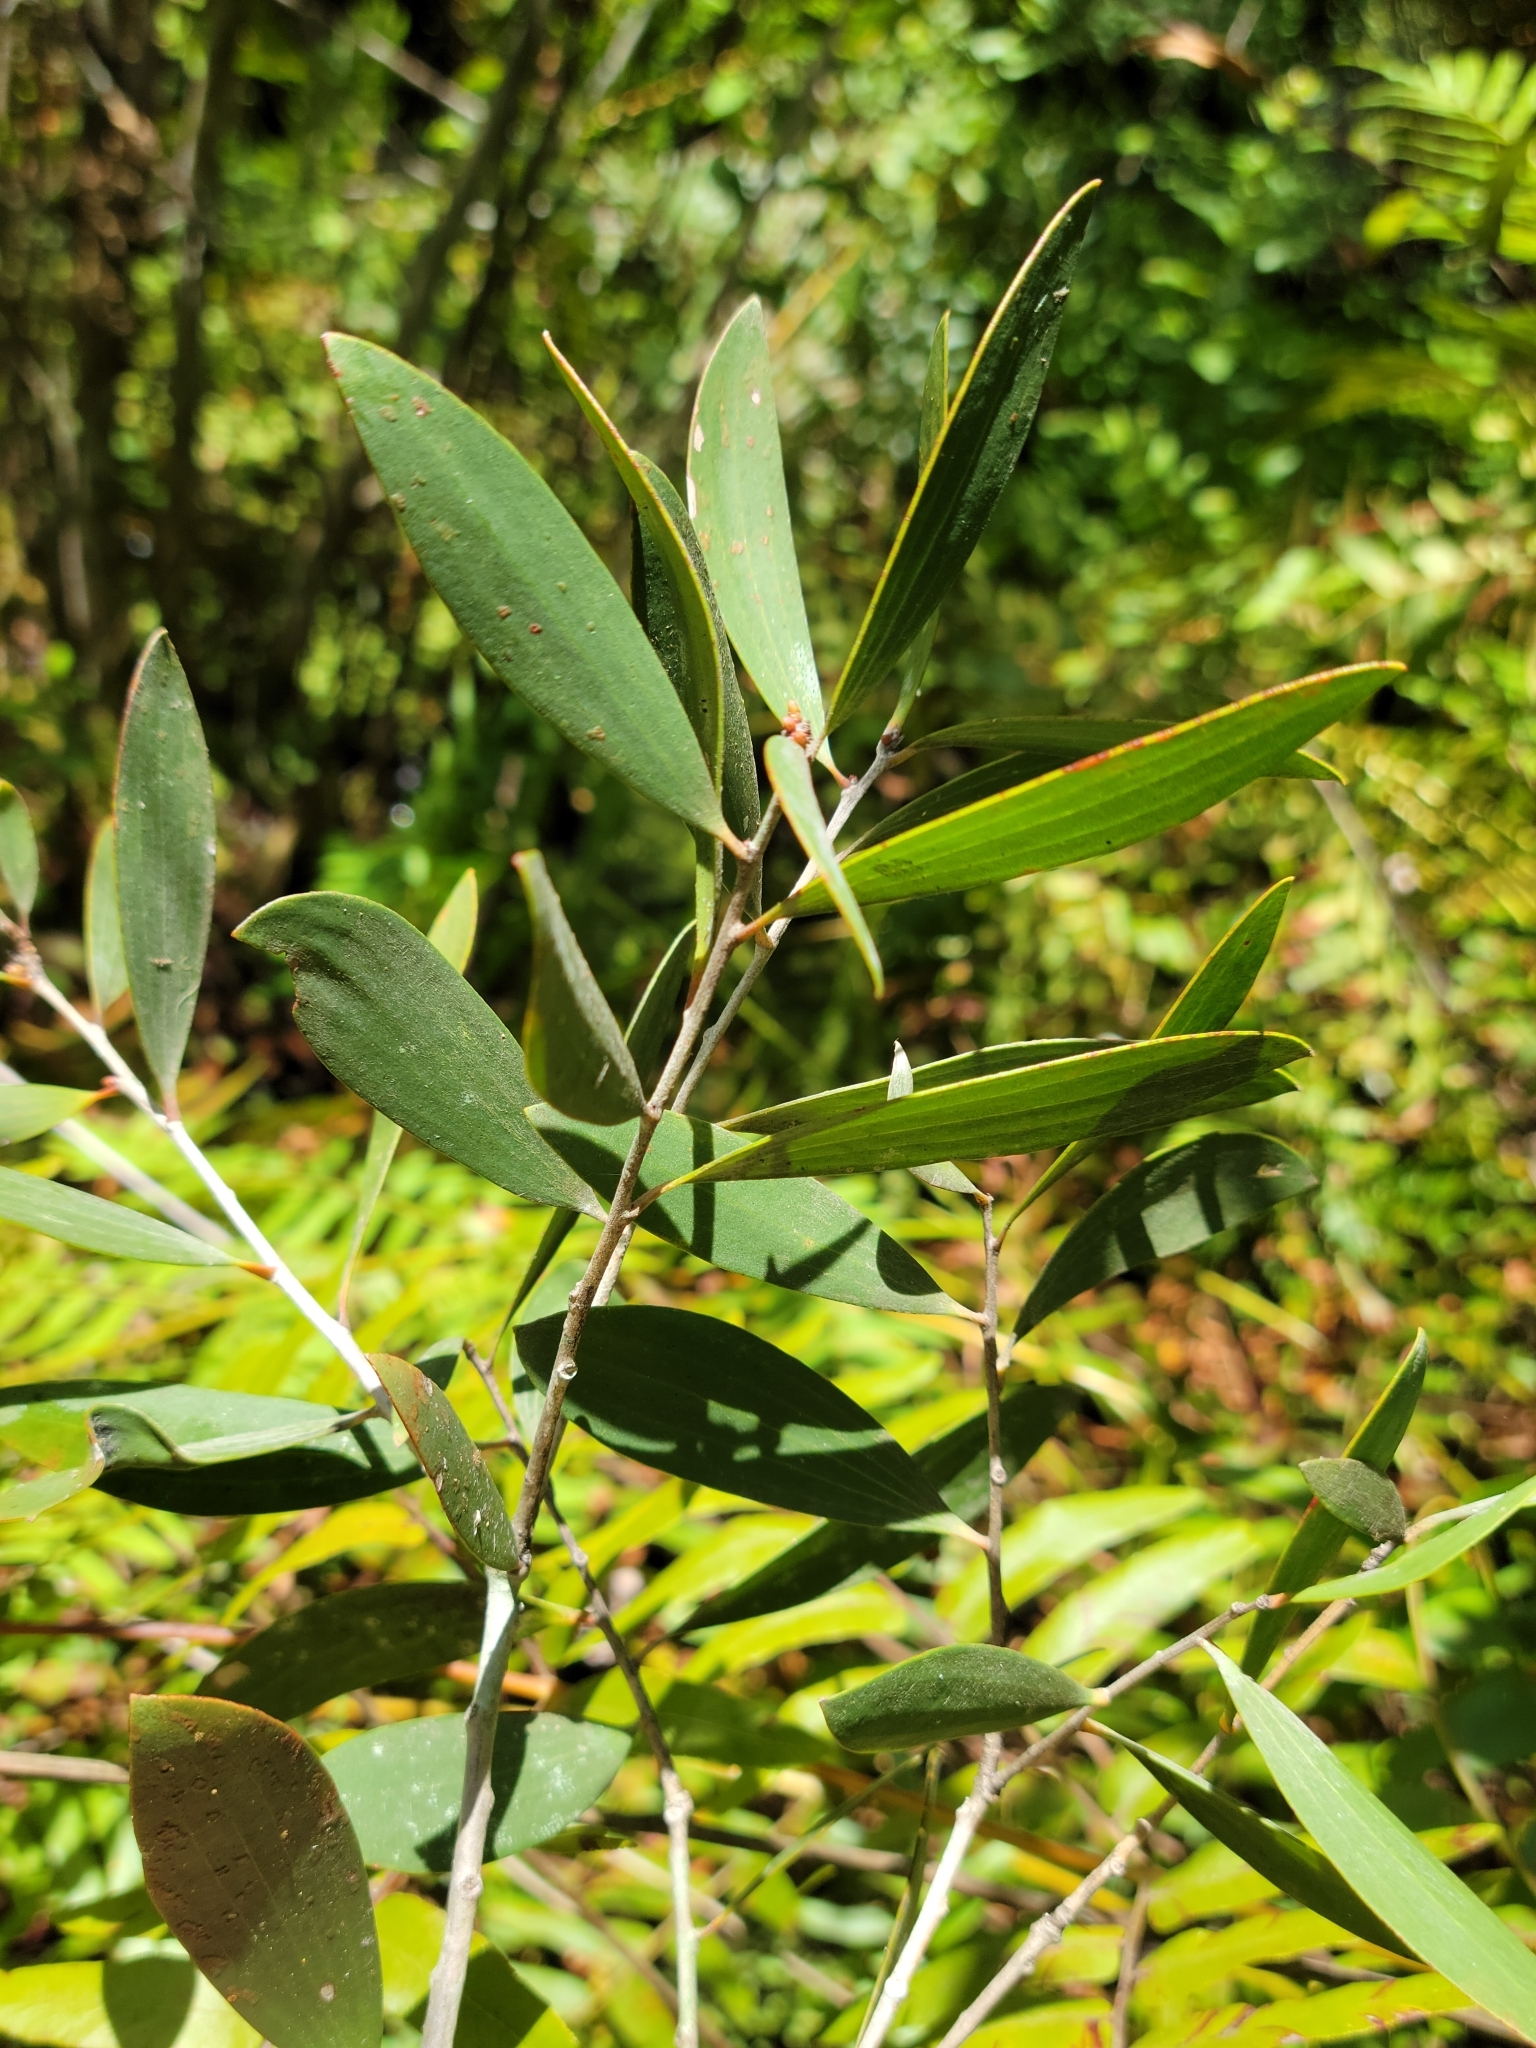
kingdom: Plantae
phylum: Tracheophyta
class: Magnoliopsida
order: Myrtales
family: Myrtaceae
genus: Melaleuca
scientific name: Melaleuca quinquenervia
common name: Punktree
